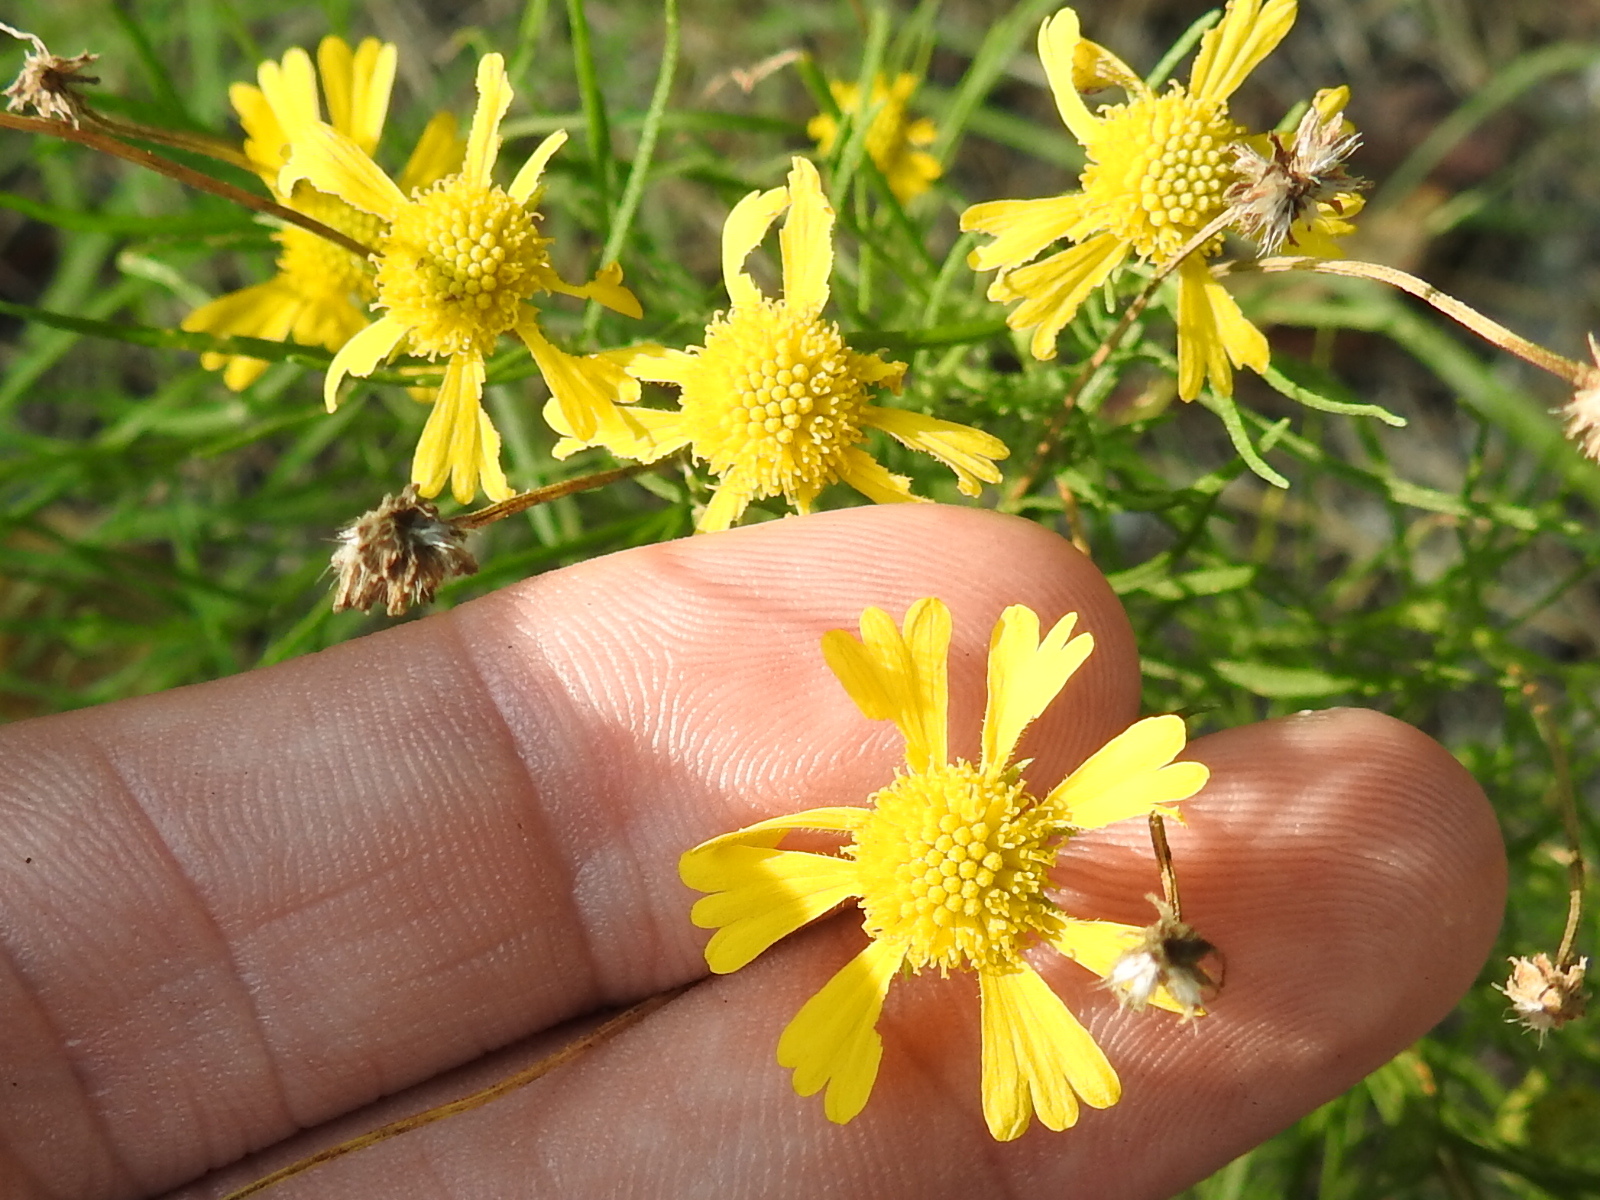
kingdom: Plantae
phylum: Tracheophyta
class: Magnoliopsida
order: Asterales
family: Asteraceae
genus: Helenium
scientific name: Helenium amarum
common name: Bitter sneezeweed
